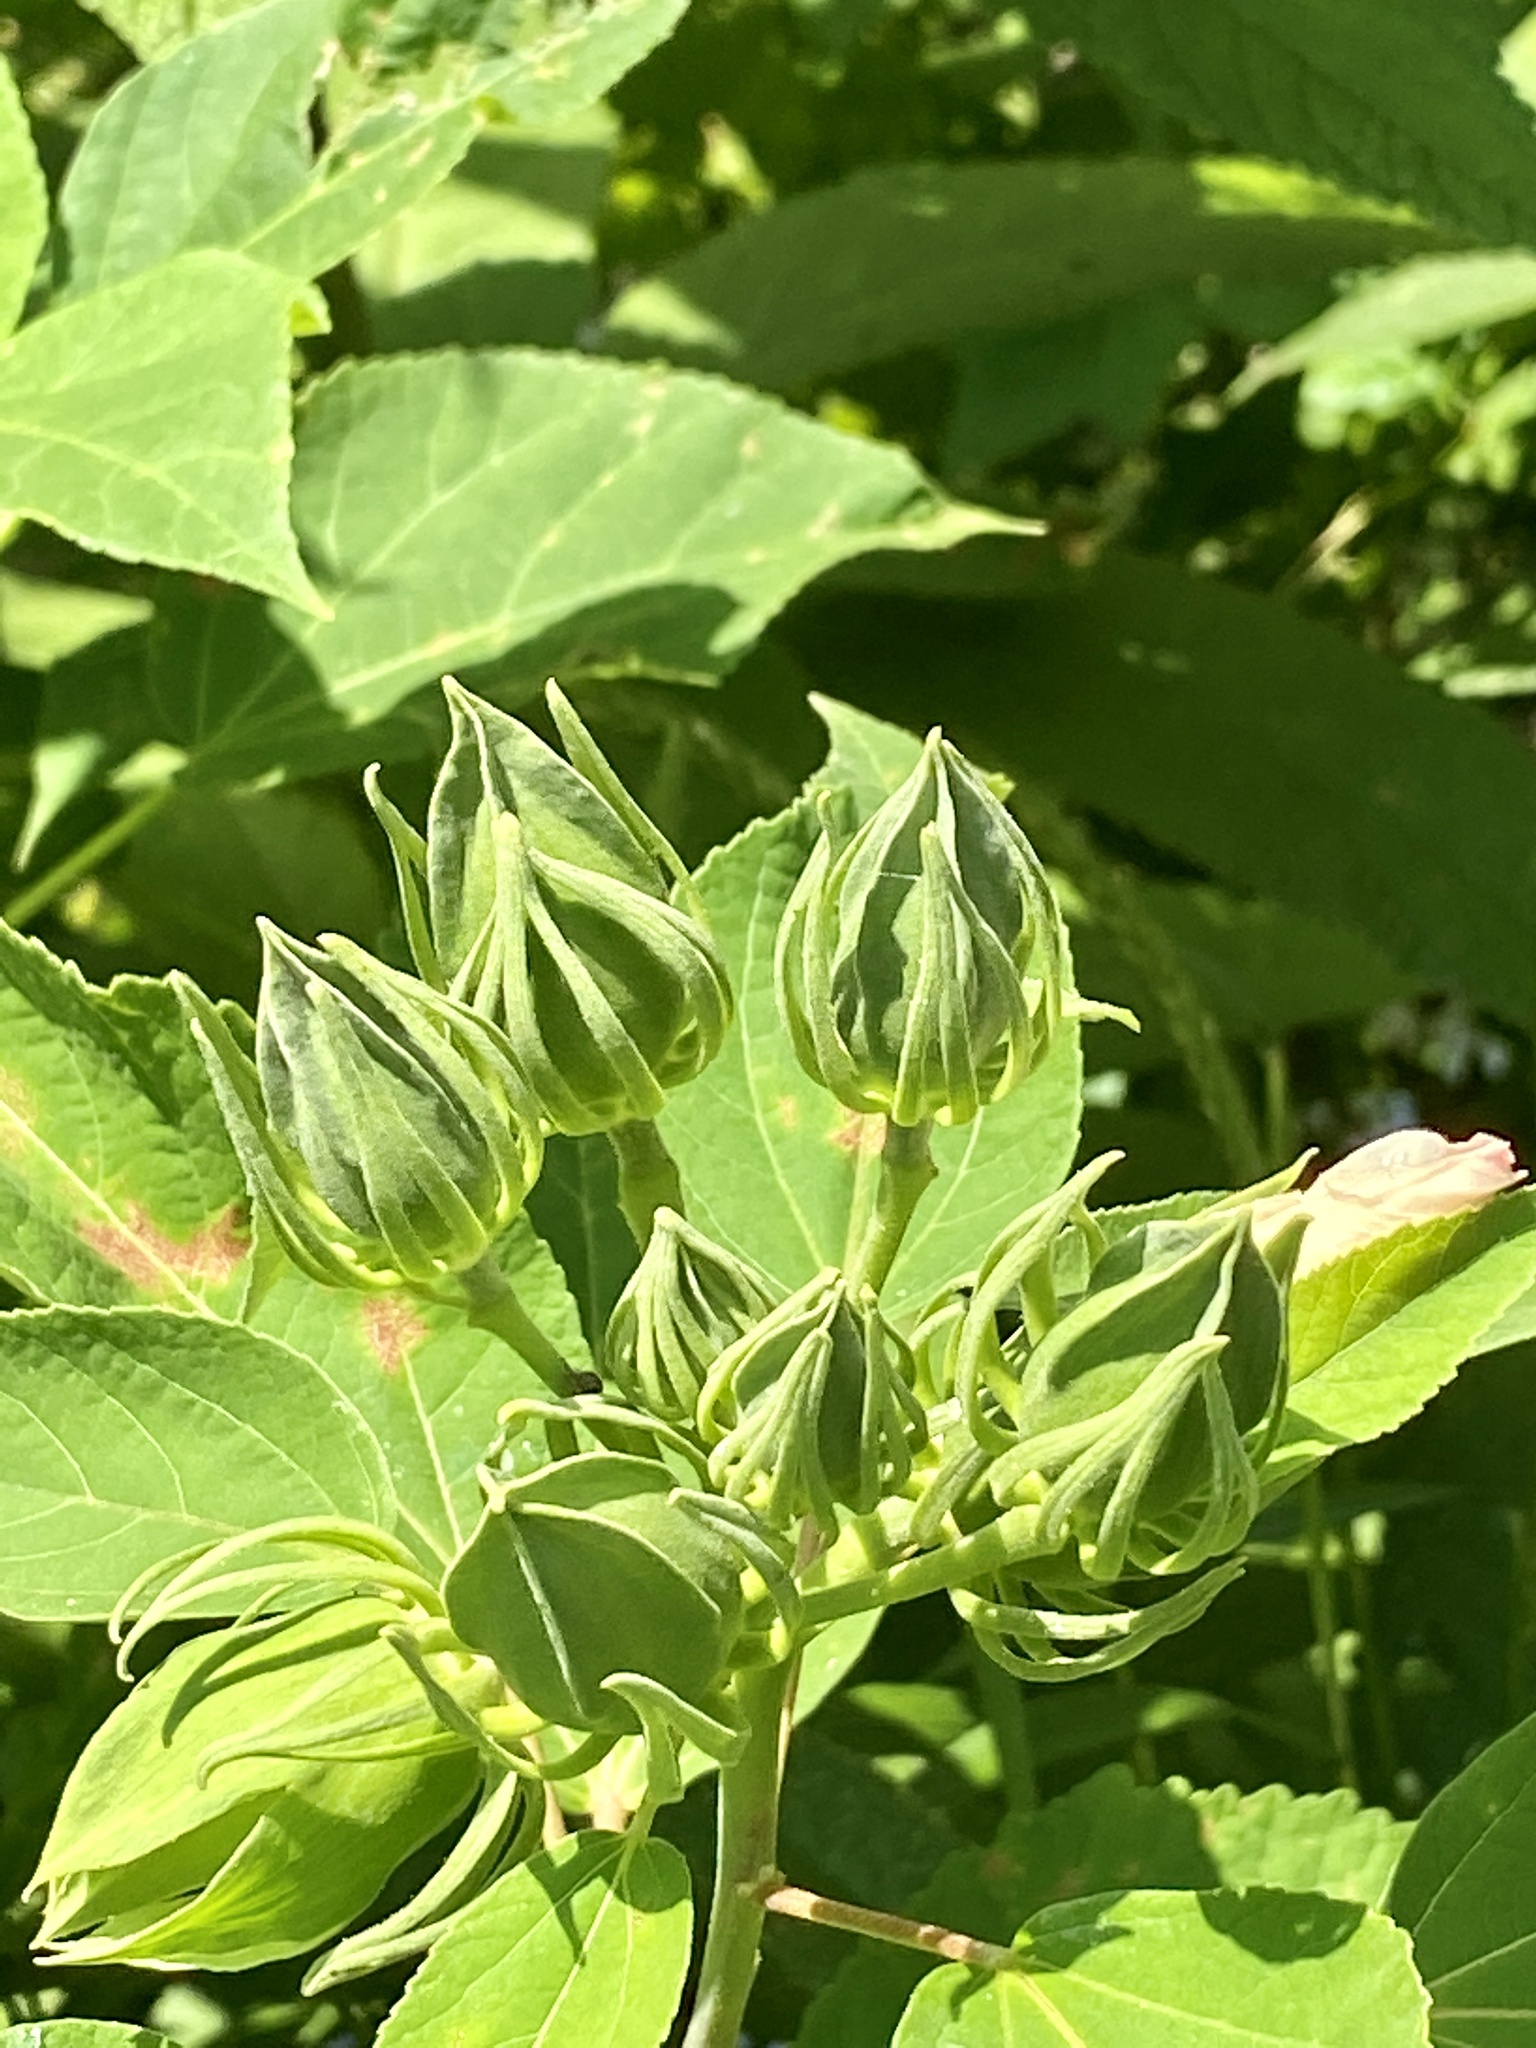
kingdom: Plantae
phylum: Tracheophyta
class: Magnoliopsida
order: Malvales
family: Malvaceae
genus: Hibiscus
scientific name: Hibiscus moscheutos
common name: Common rose-mallow
